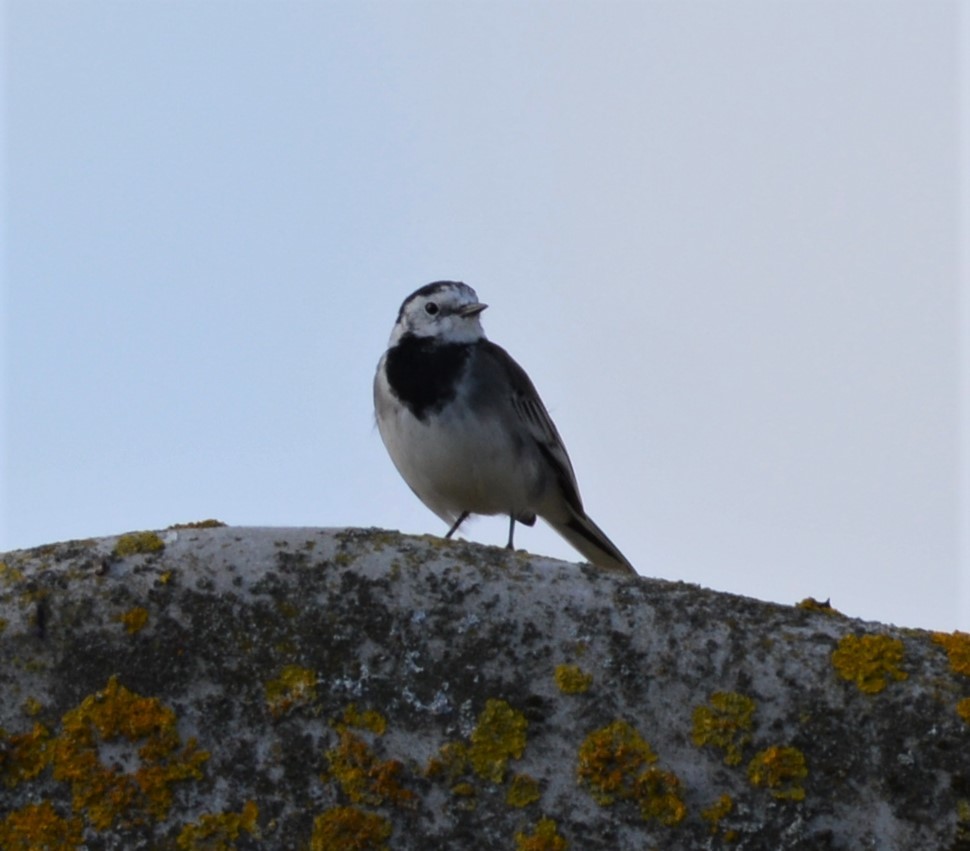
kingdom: Animalia
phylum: Chordata
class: Aves
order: Passeriformes
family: Motacillidae
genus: Motacilla
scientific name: Motacilla alba
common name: White wagtail
